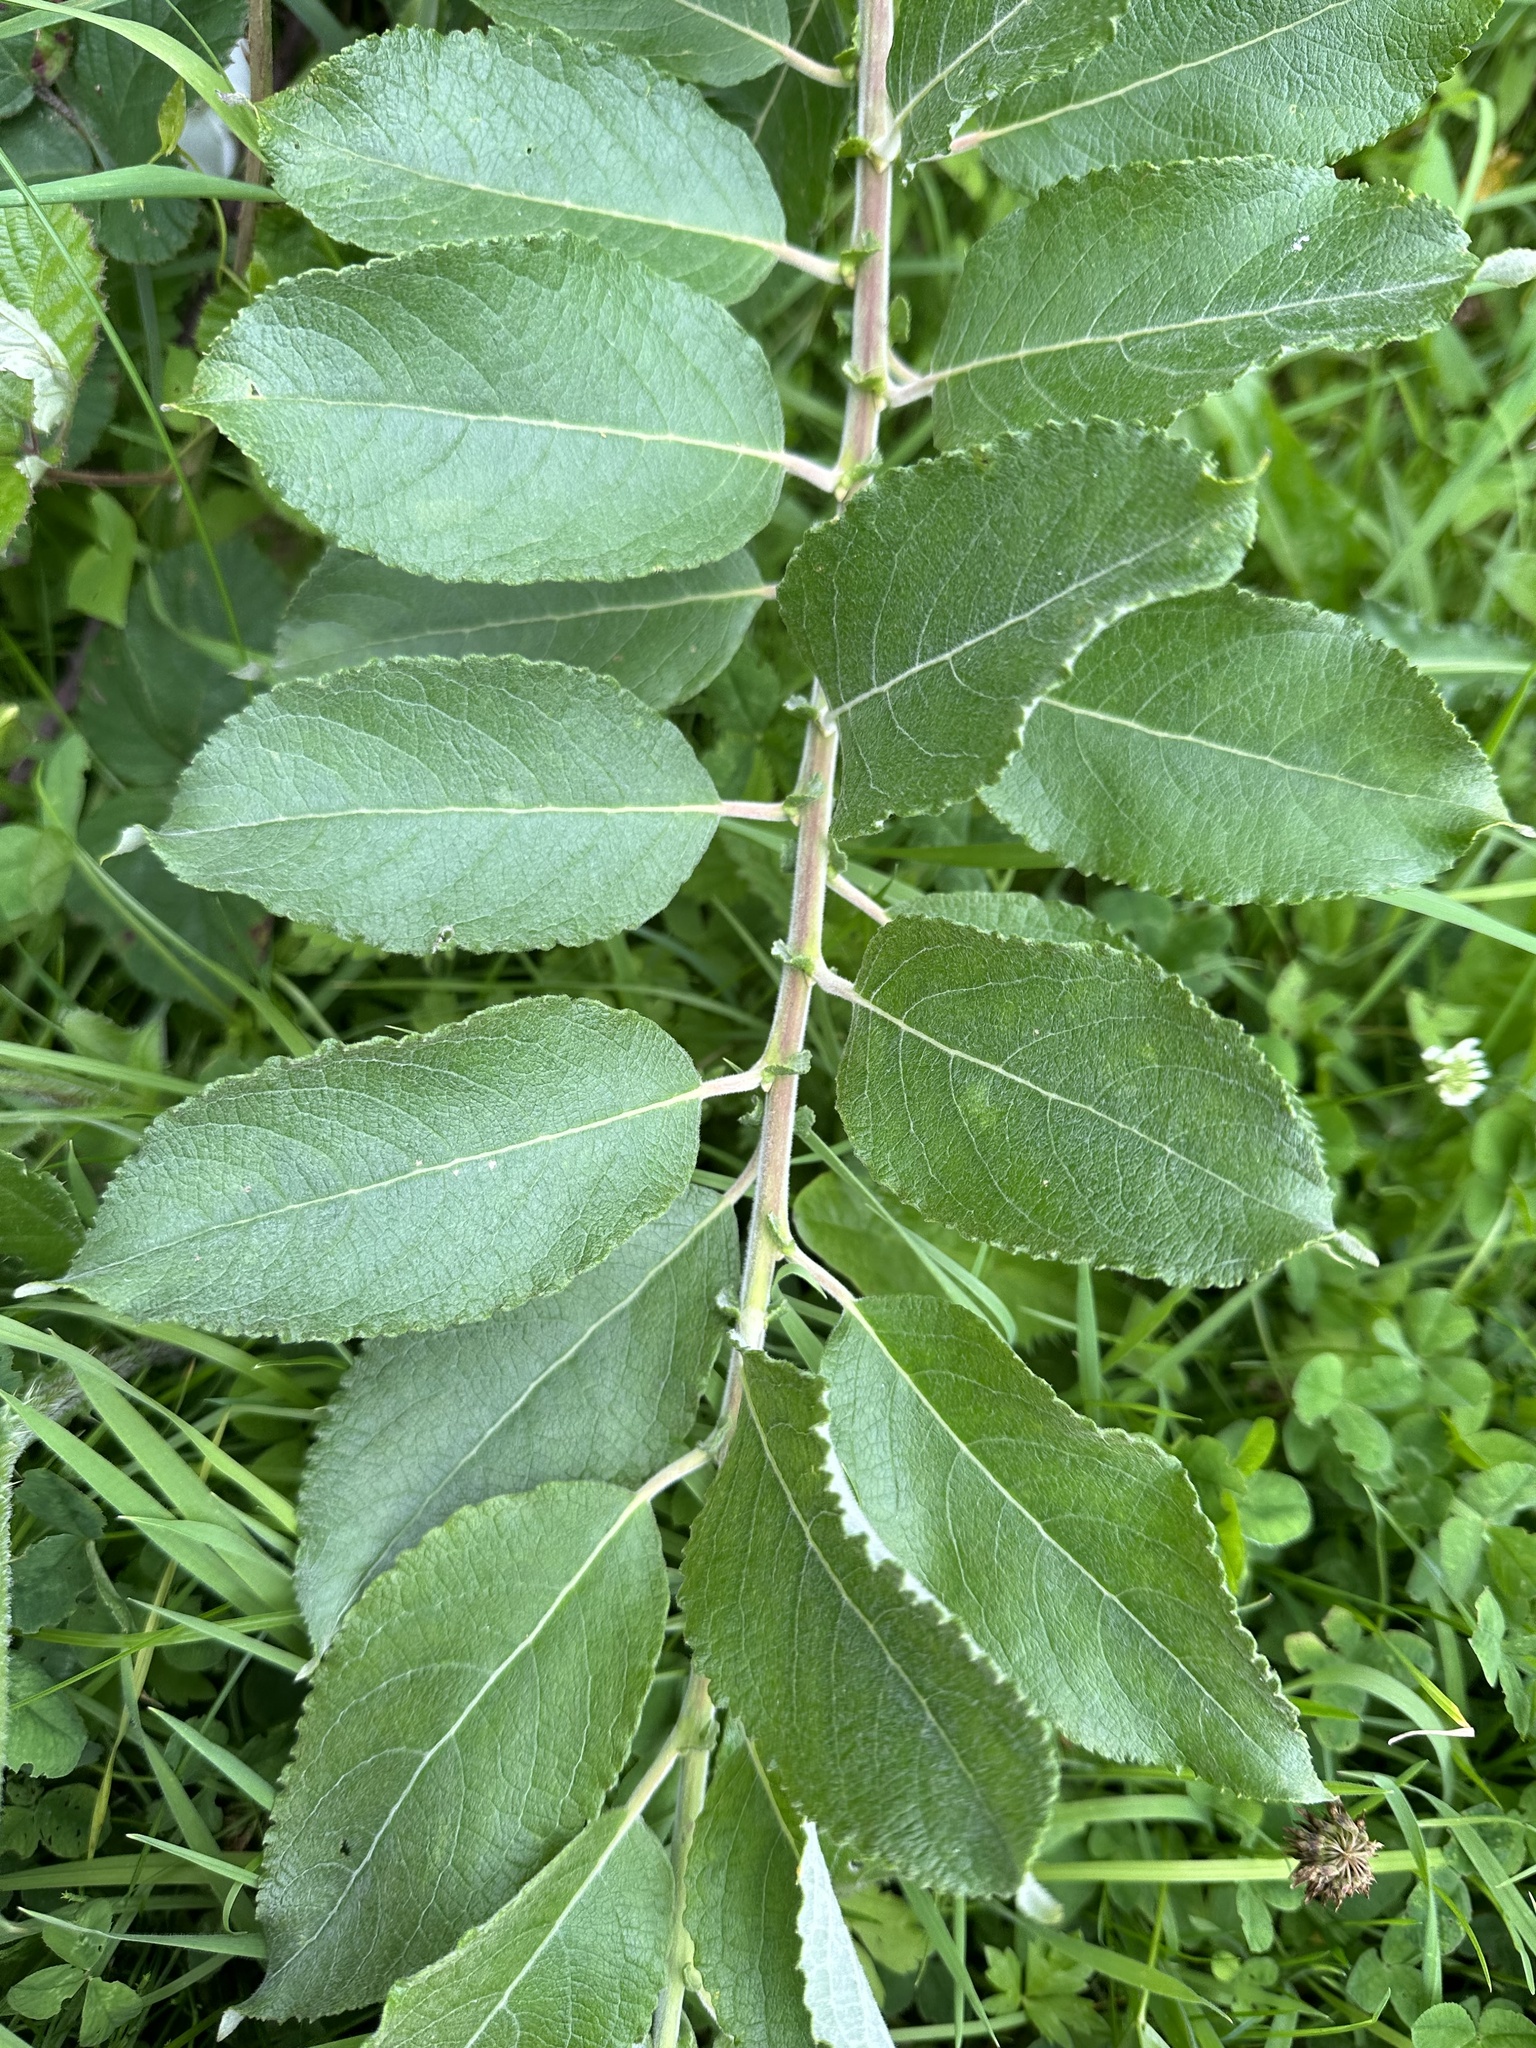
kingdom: Plantae
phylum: Tracheophyta
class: Magnoliopsida
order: Malpighiales
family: Salicaceae
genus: Salix
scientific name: Salix caprea
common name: Goat willow
